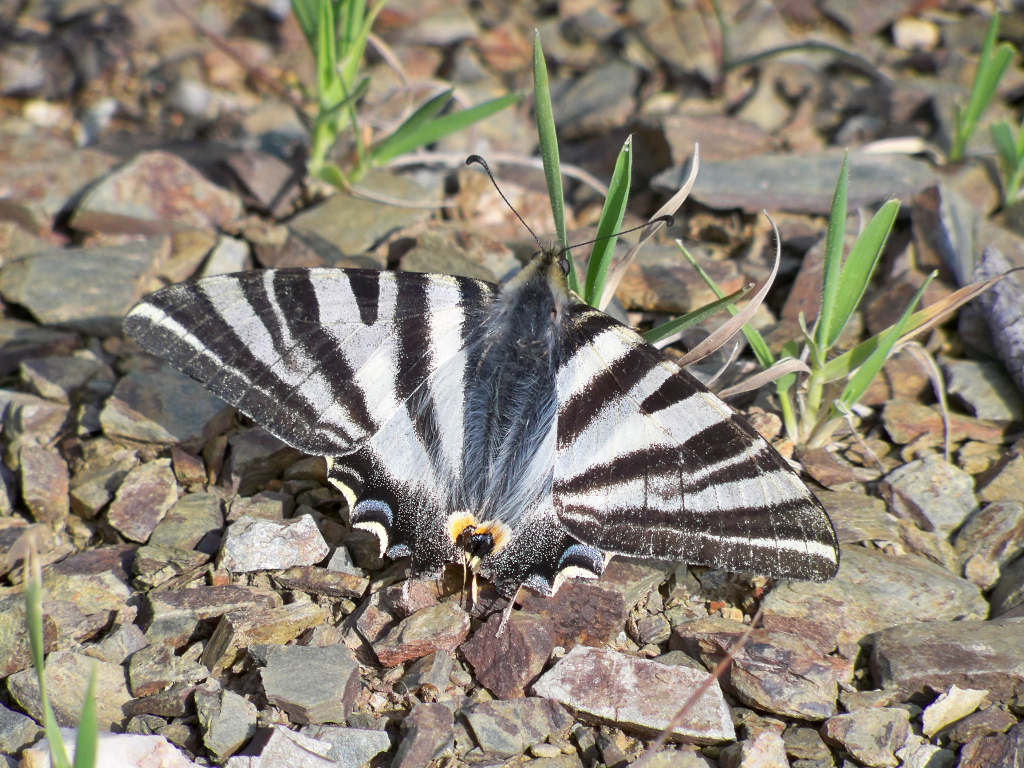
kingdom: Animalia
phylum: Arthropoda
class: Insecta
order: Lepidoptera
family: Papilionidae
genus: Iphiclides
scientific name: Iphiclides feisthamelii
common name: Iberian scarce swallowtail
